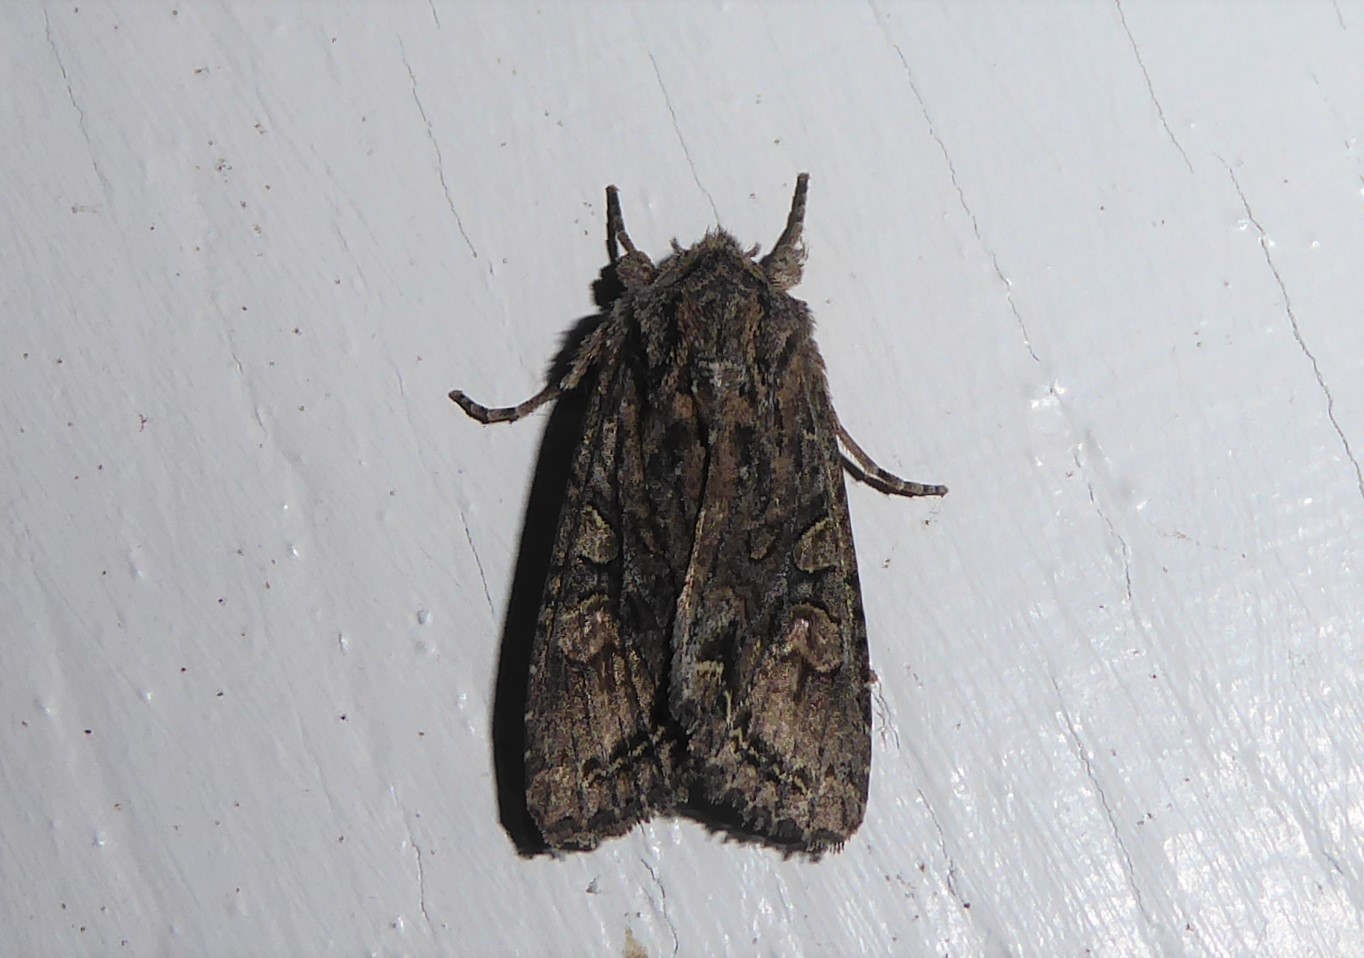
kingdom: Animalia
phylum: Arthropoda
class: Insecta
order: Lepidoptera
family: Noctuidae
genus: Ichneutica
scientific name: Ichneutica mutans
